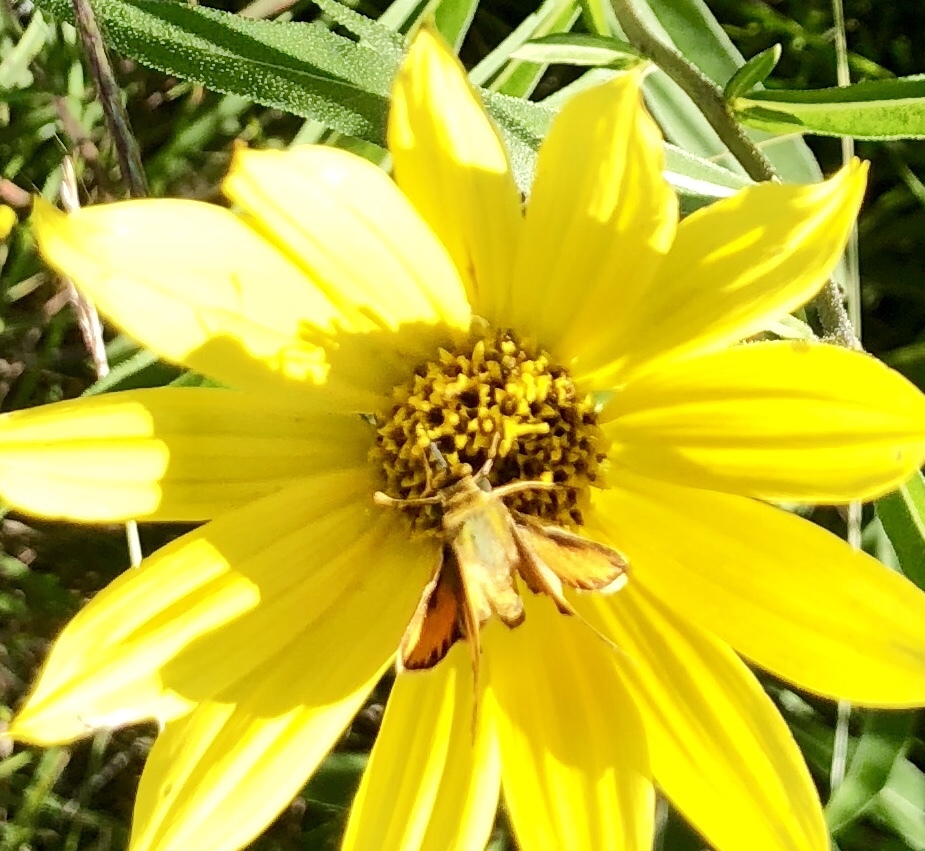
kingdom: Animalia
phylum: Arthropoda
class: Insecta
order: Lepidoptera
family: Hesperiidae
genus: Hylephila
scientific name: Hylephila phyleus
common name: Fiery skipper
